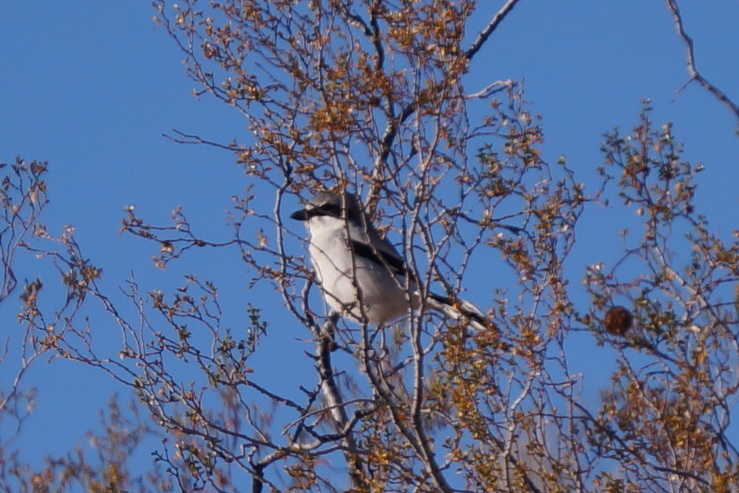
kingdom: Animalia
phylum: Chordata
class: Aves
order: Passeriformes
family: Laniidae
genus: Lanius
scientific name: Lanius ludovicianus
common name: Loggerhead shrike
